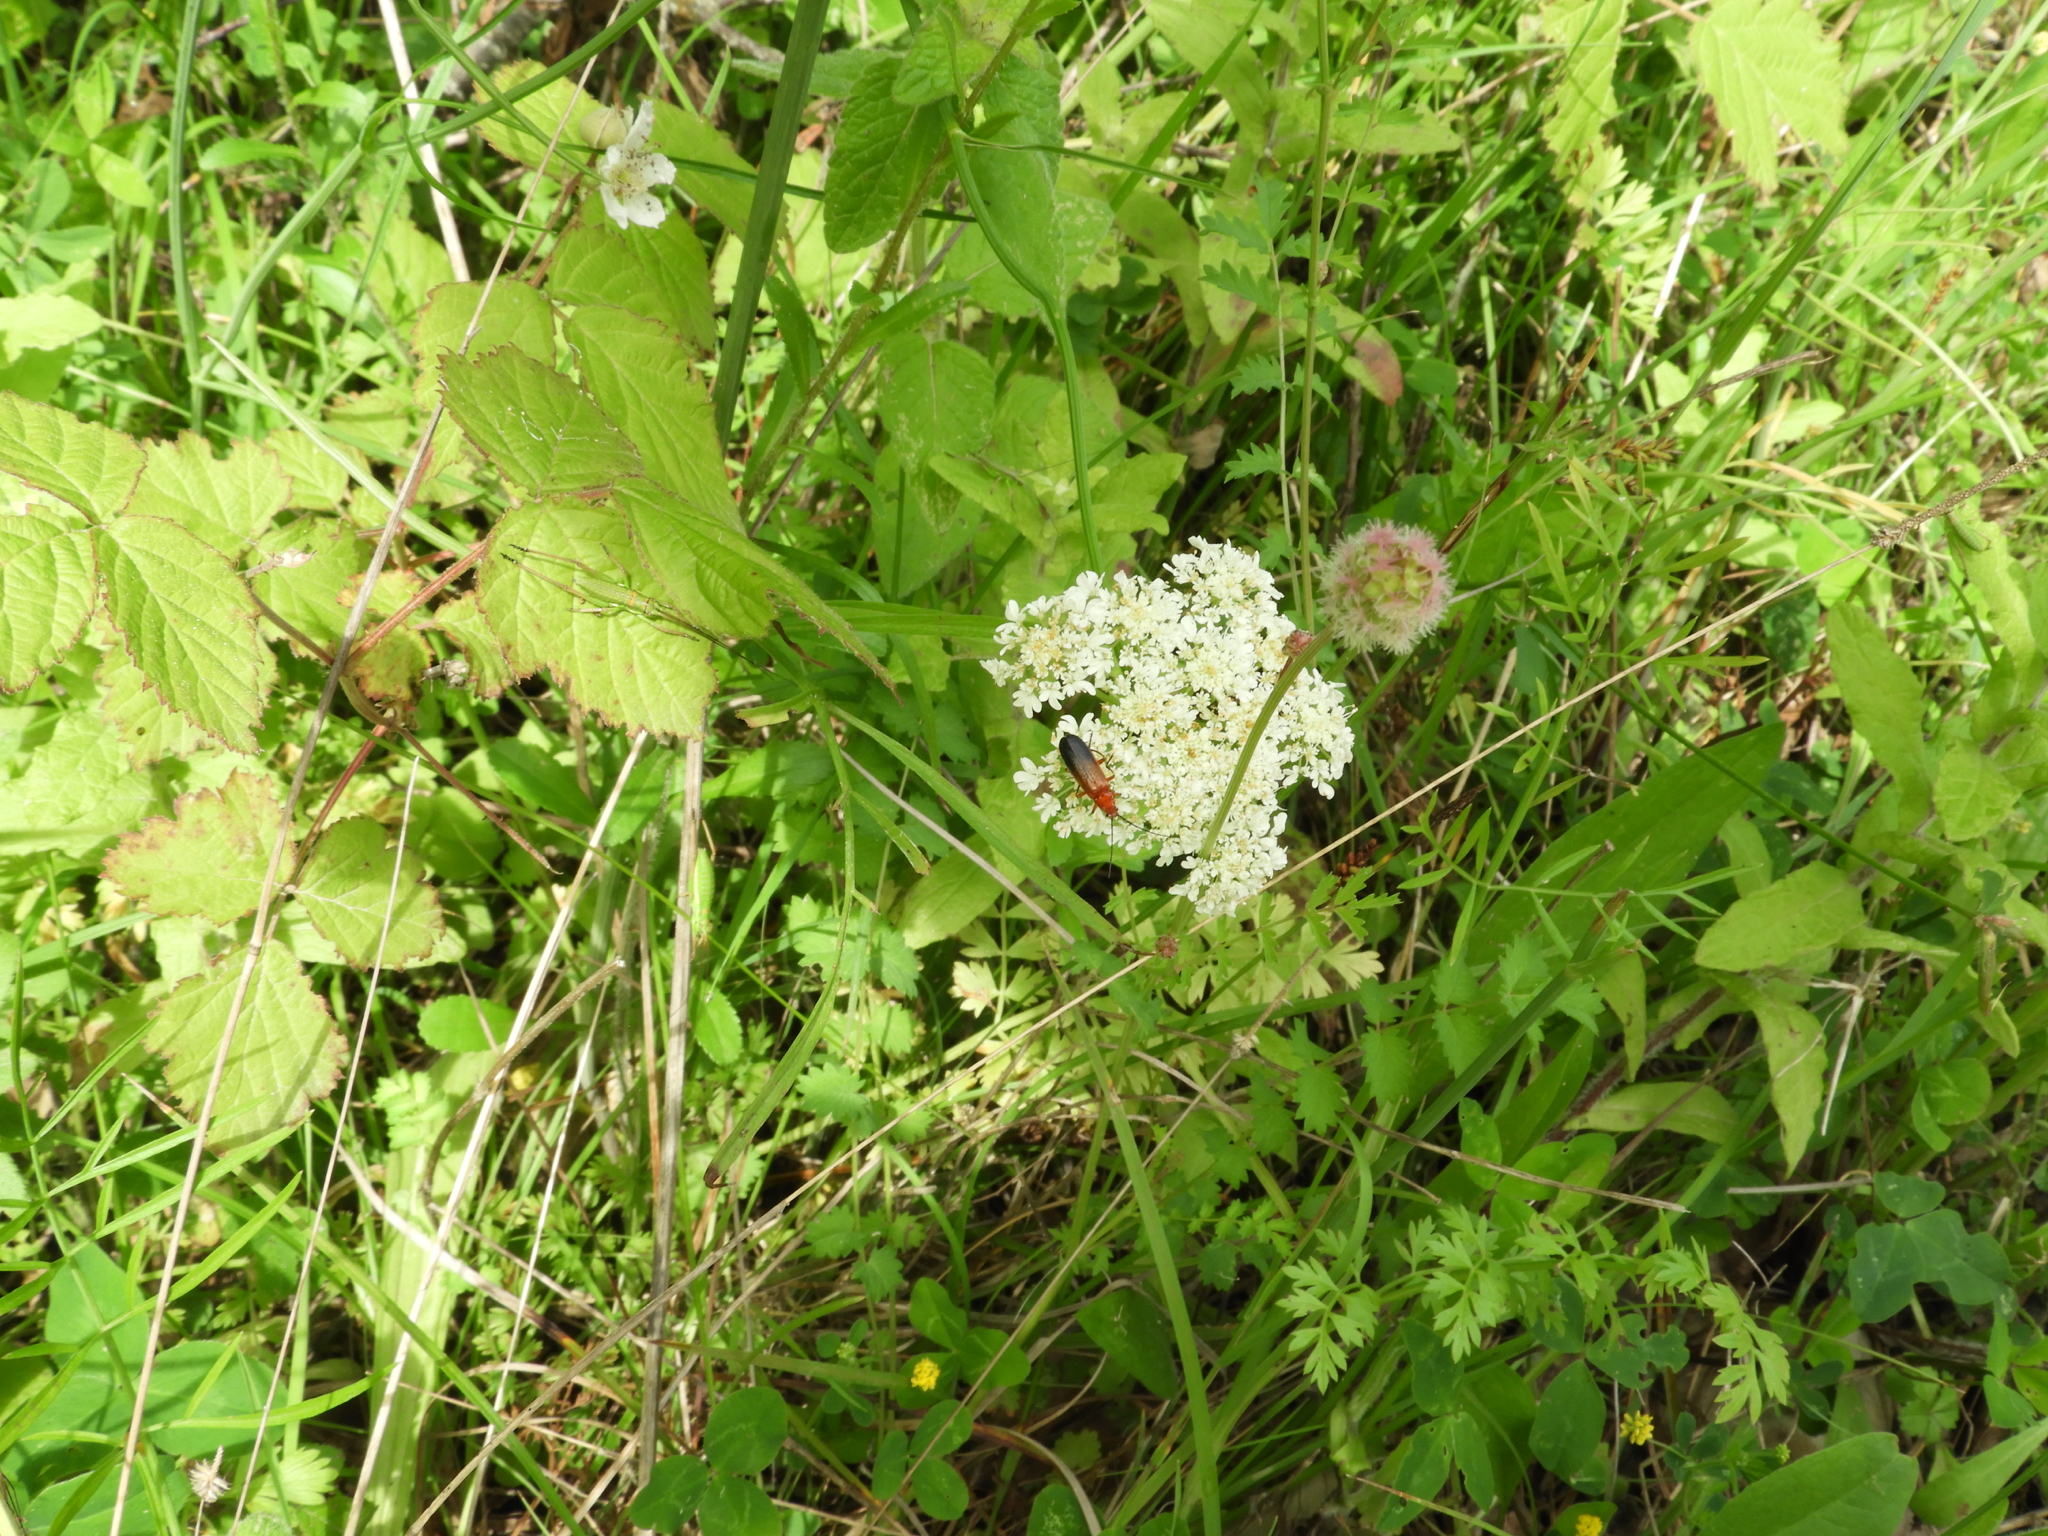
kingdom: Animalia
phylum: Arthropoda
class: Insecta
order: Coleoptera
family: Cantharidae
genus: Rhagonycha
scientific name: Rhagonycha fulva
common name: Common red soldier beetle
